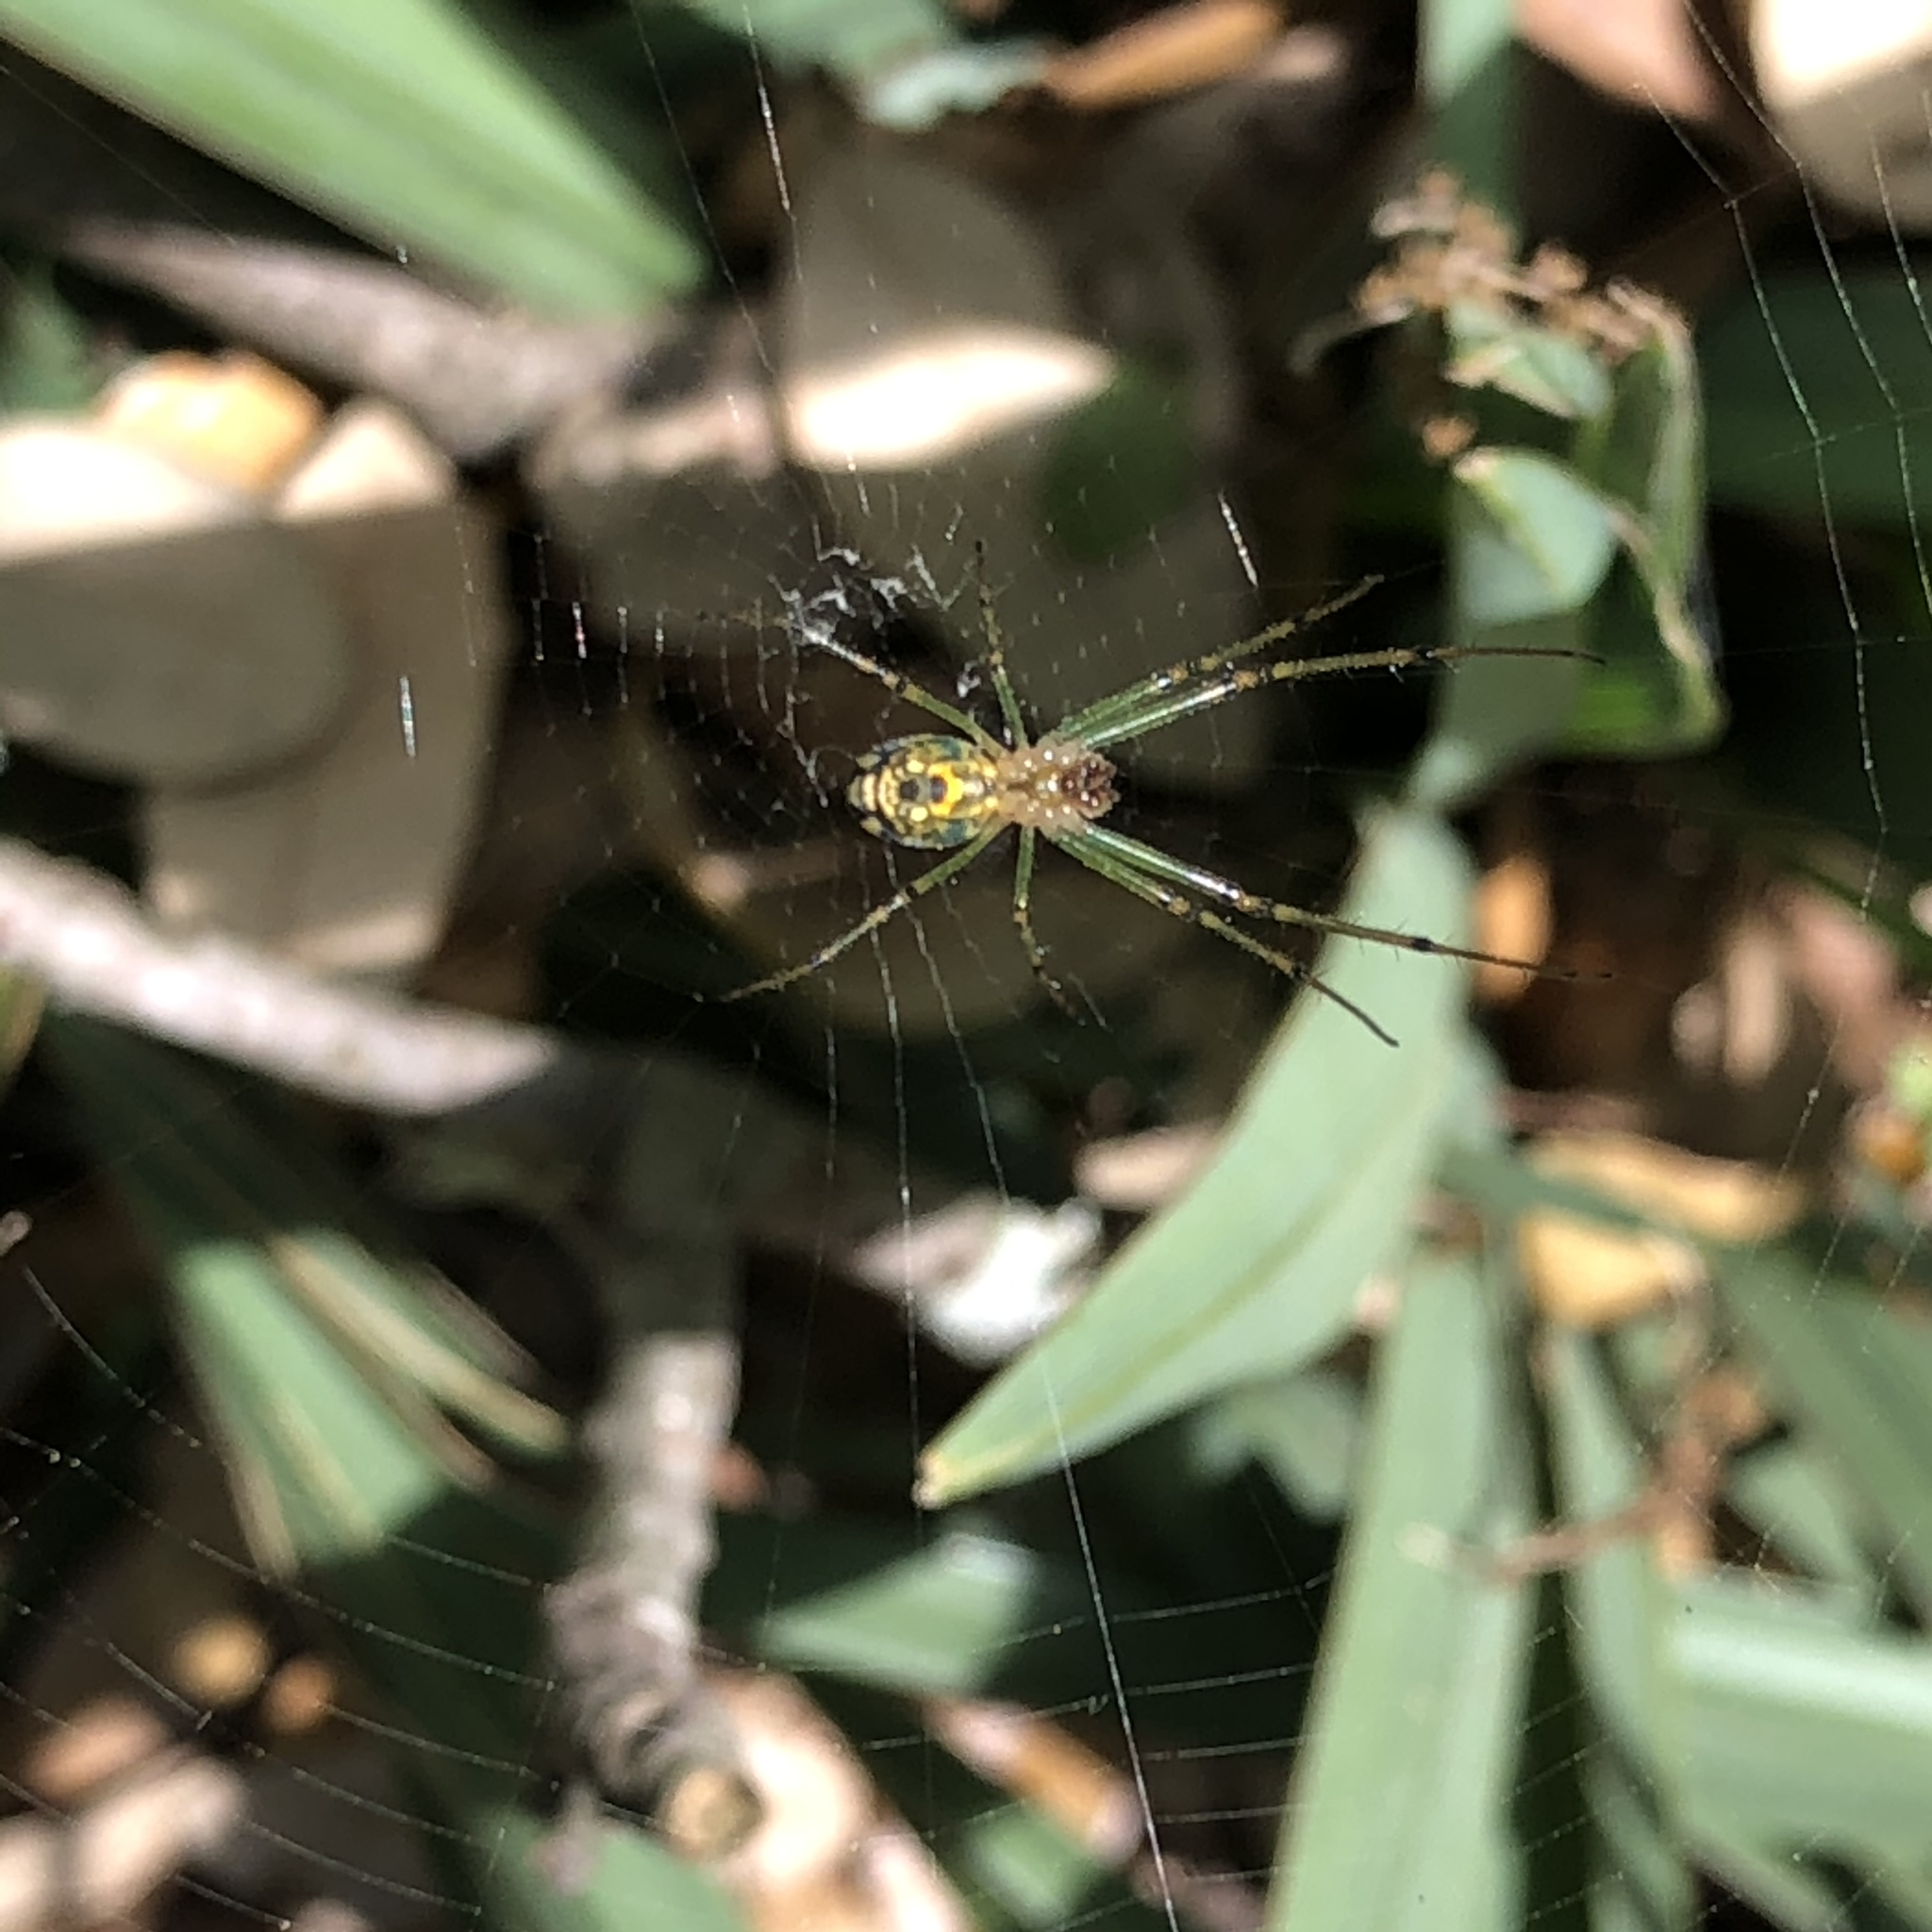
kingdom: Animalia
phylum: Arthropoda
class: Arachnida
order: Araneae
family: Tetragnathidae
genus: Leucauge
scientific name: Leucauge venusta
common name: Longjawed orb weavers
